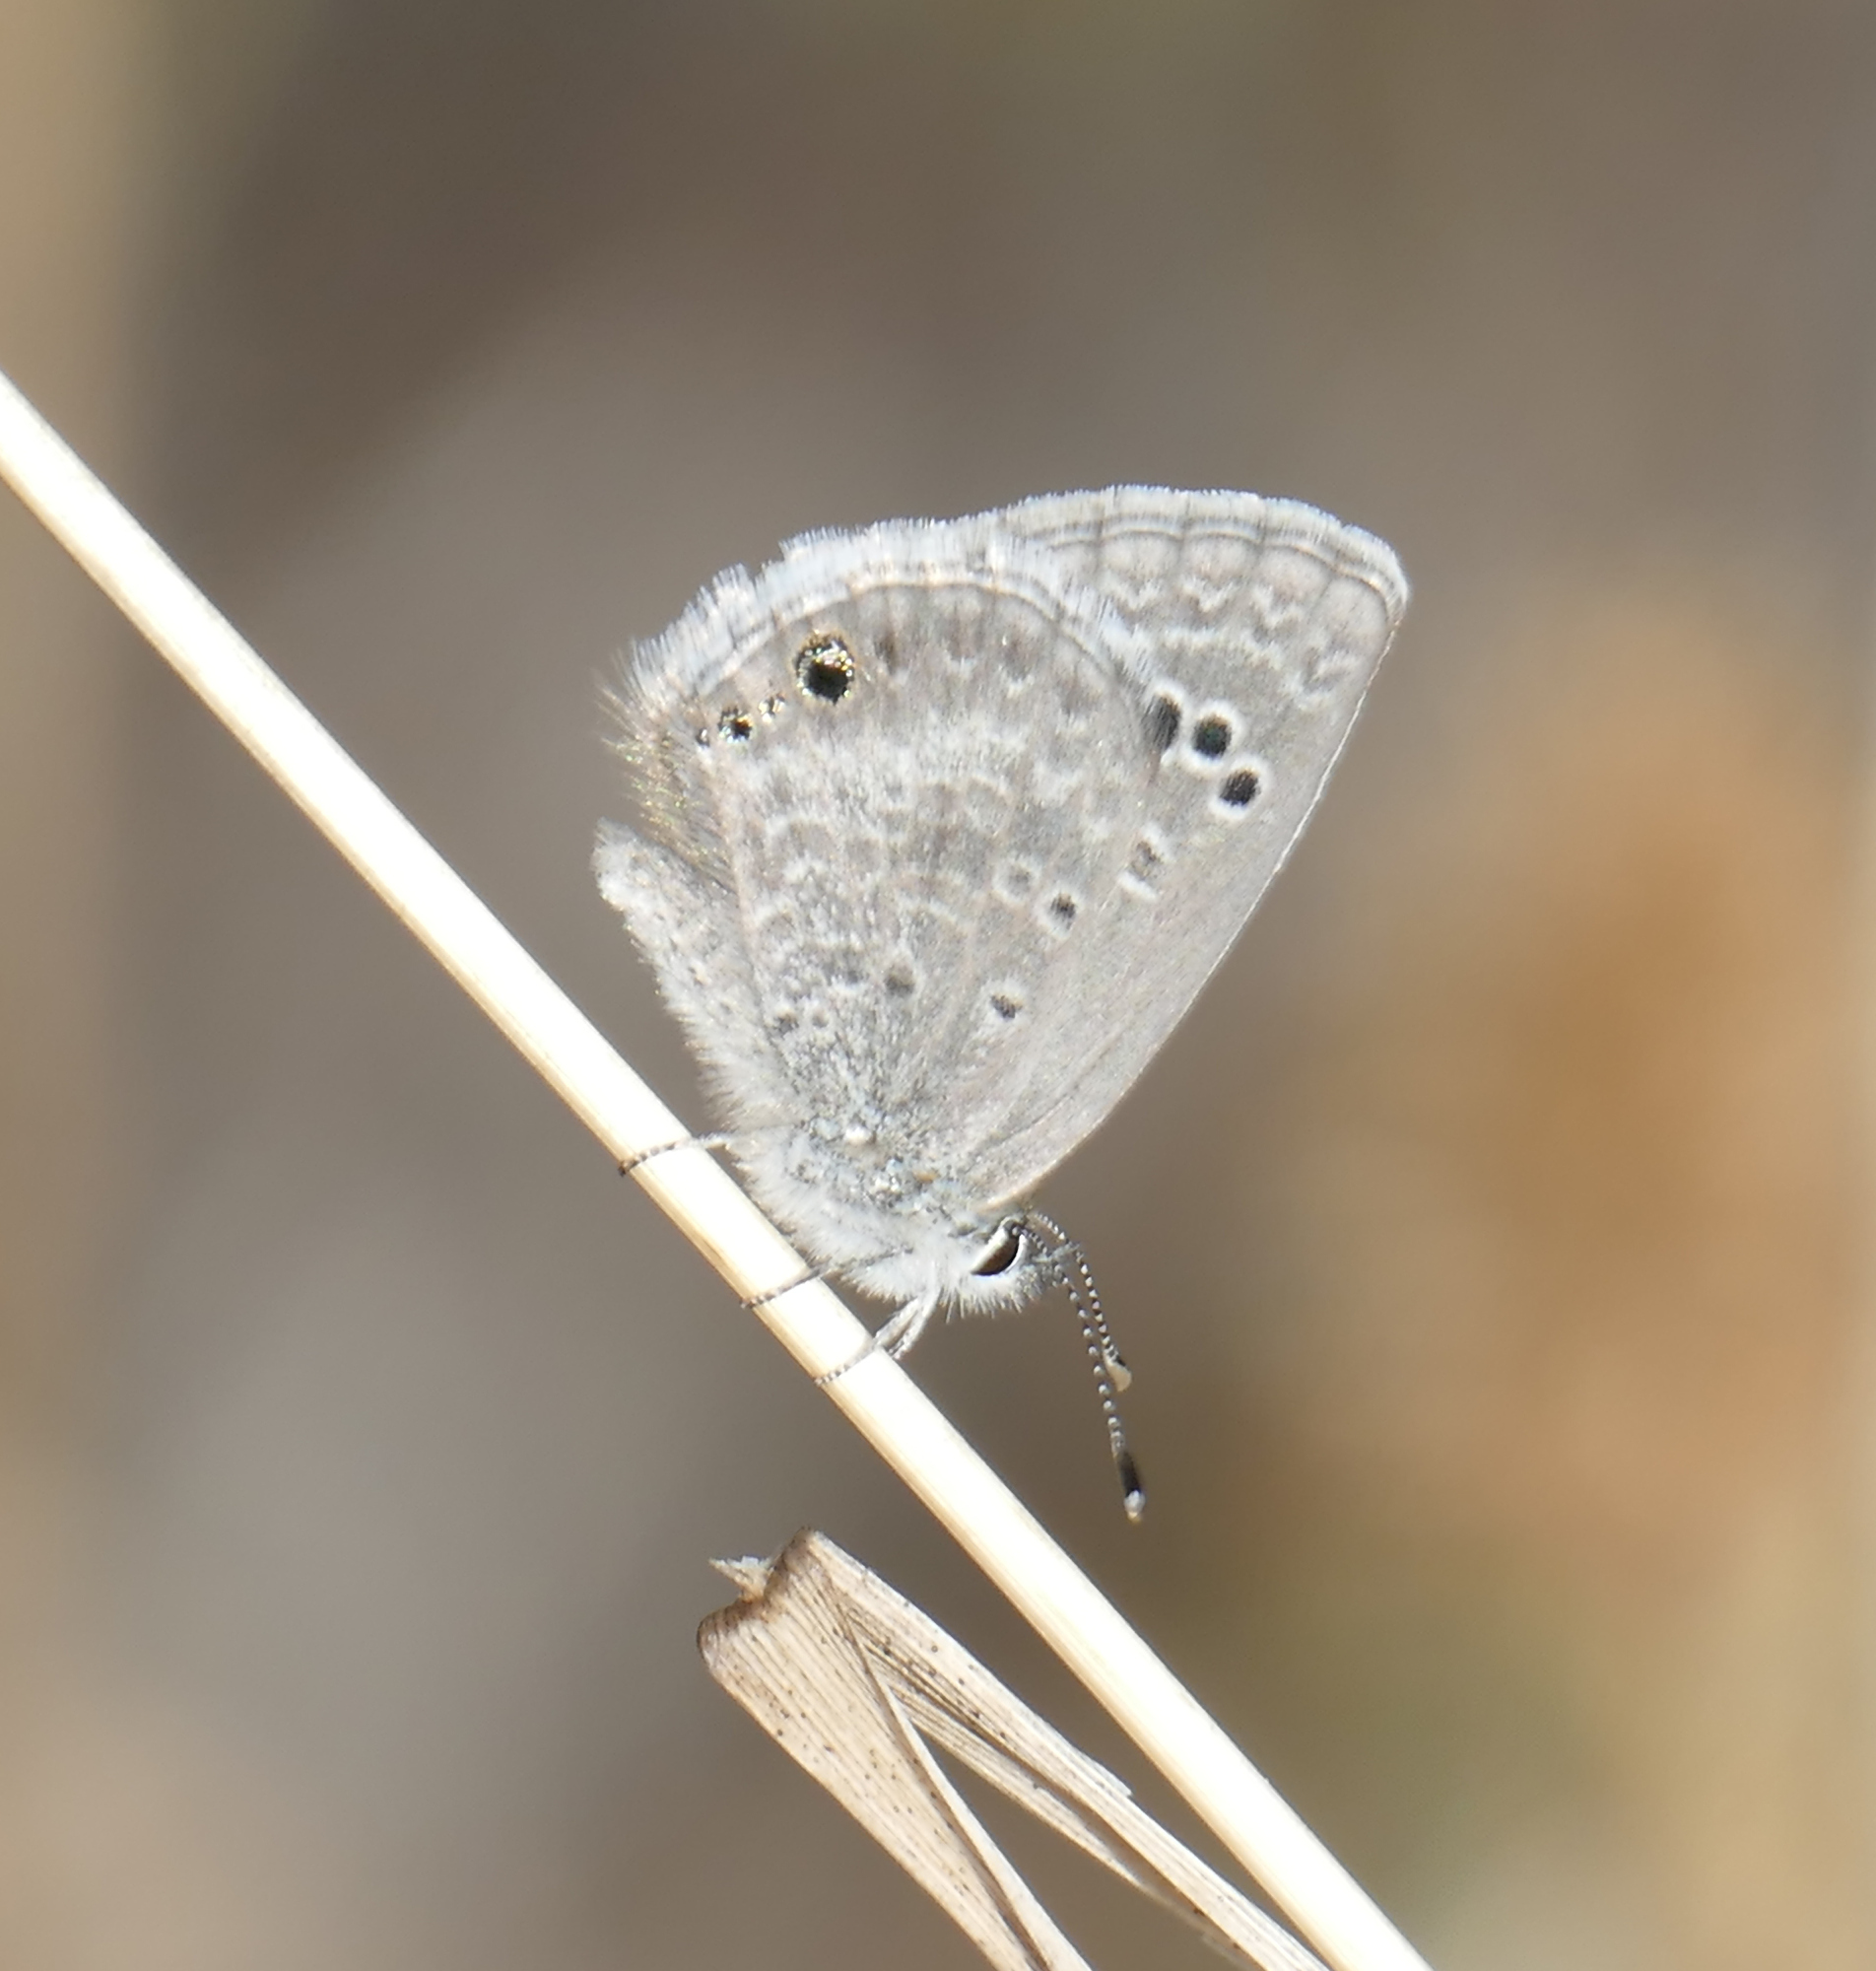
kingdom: Animalia
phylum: Arthropoda
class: Insecta
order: Lepidoptera
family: Lycaenidae
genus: Echinargus
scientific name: Echinargus isola
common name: Reakirt's blue
